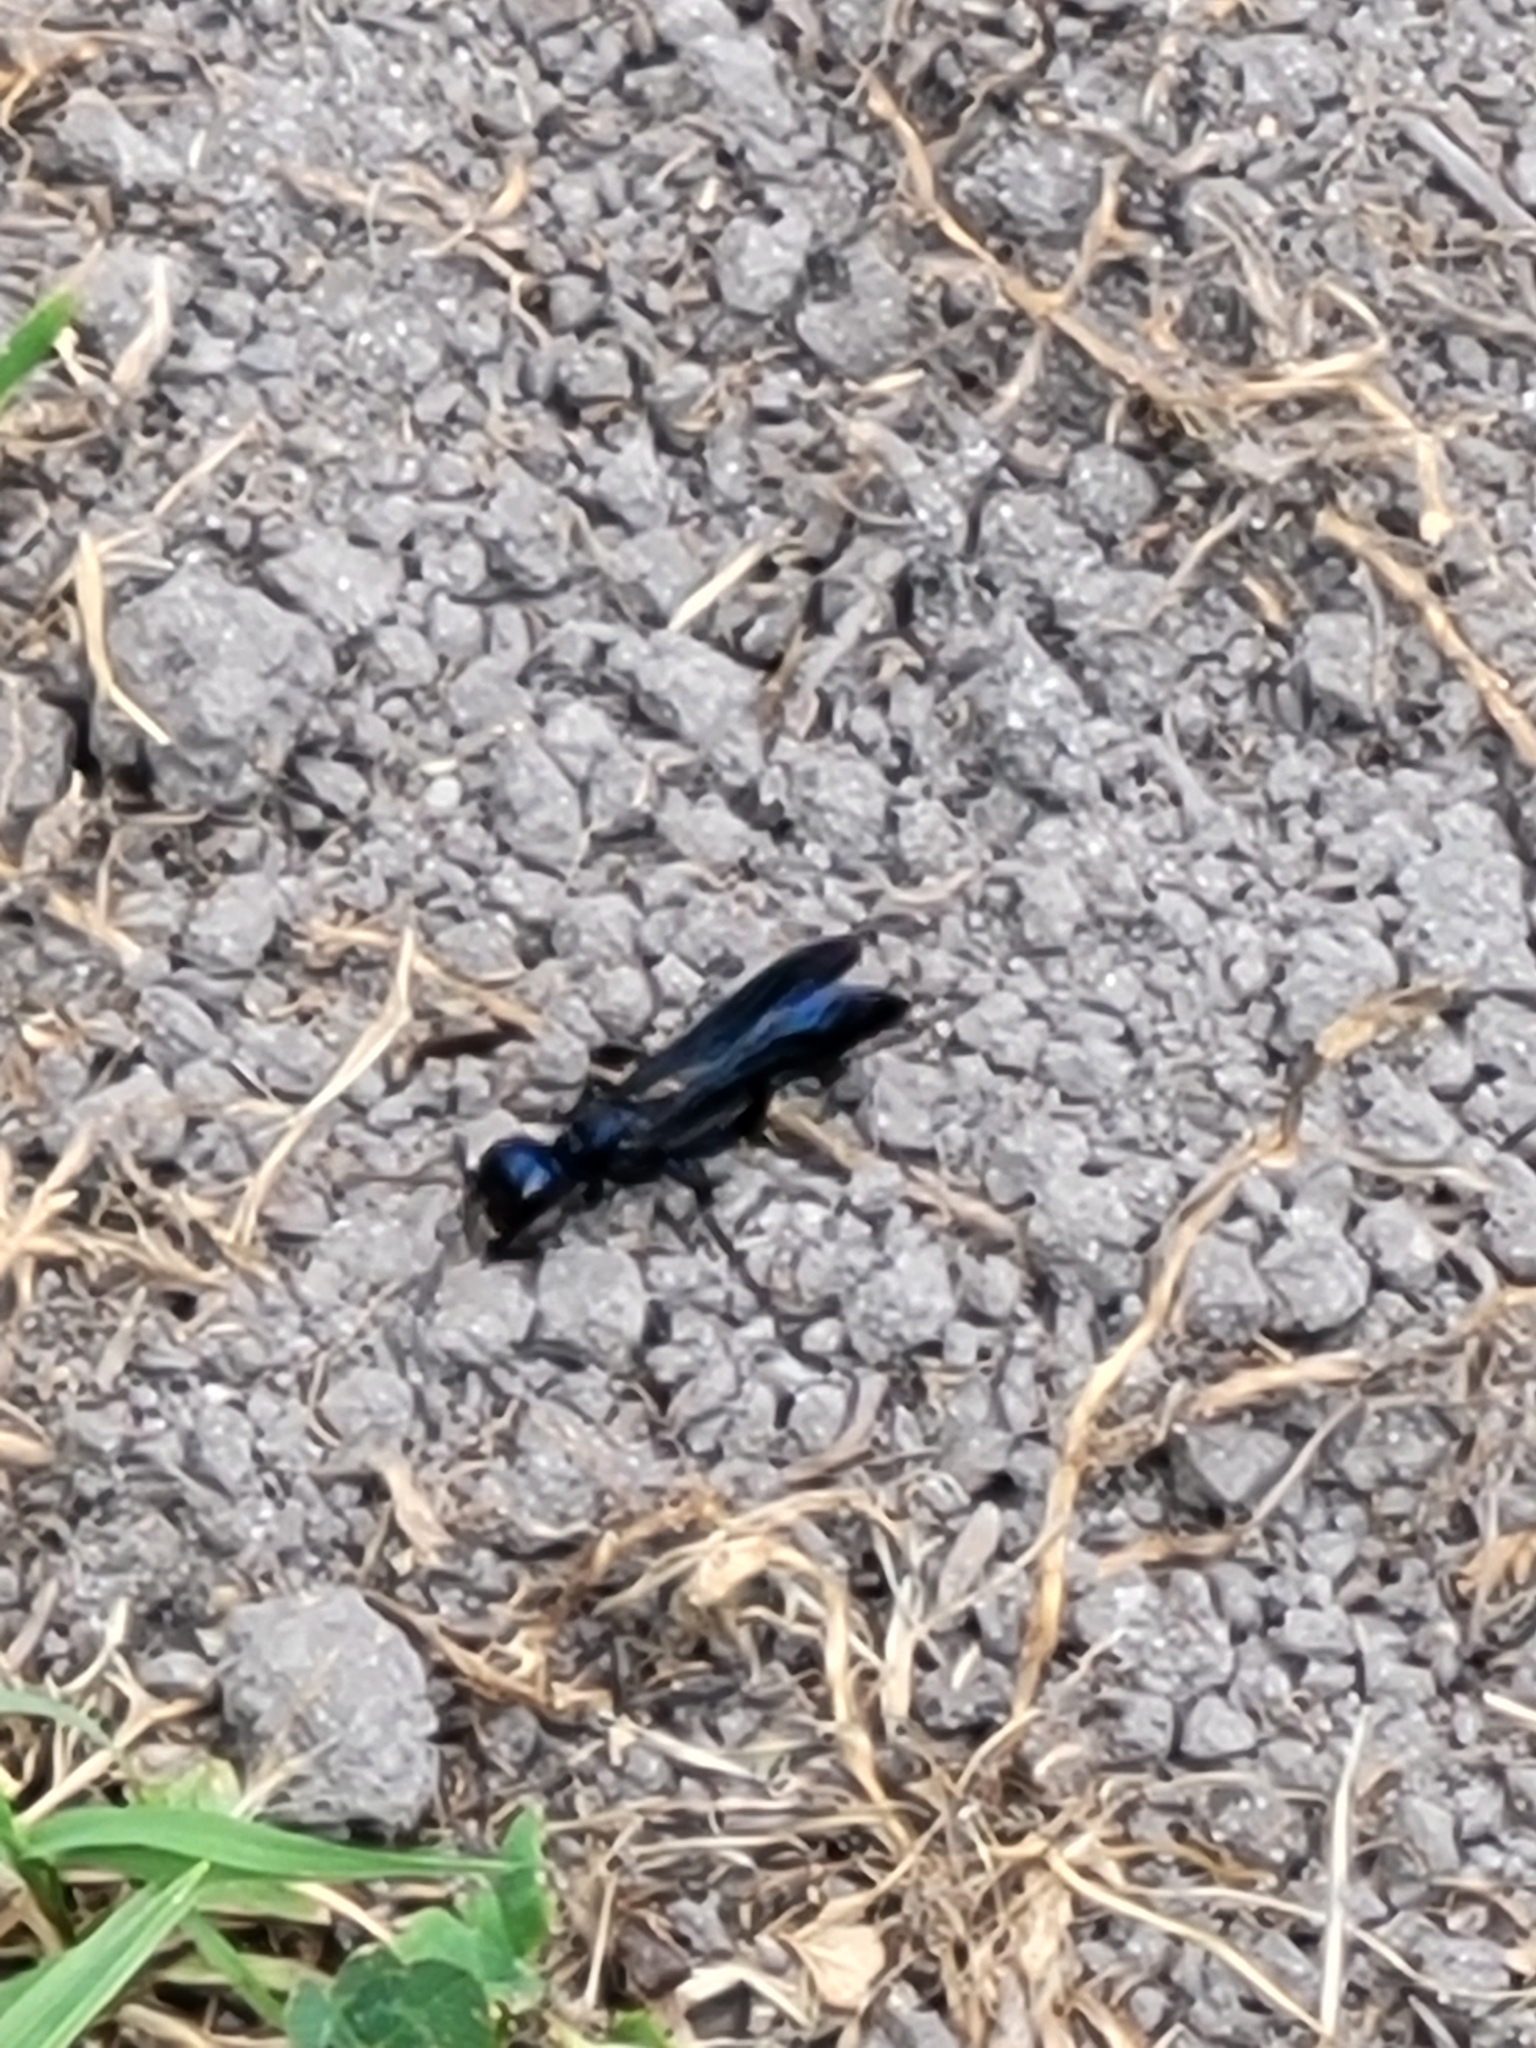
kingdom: Animalia
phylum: Arthropoda
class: Insecta
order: Hymenoptera
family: Sphecidae
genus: Chlorion
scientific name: Chlorion aerarium
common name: Steel-blue cricket hunter
